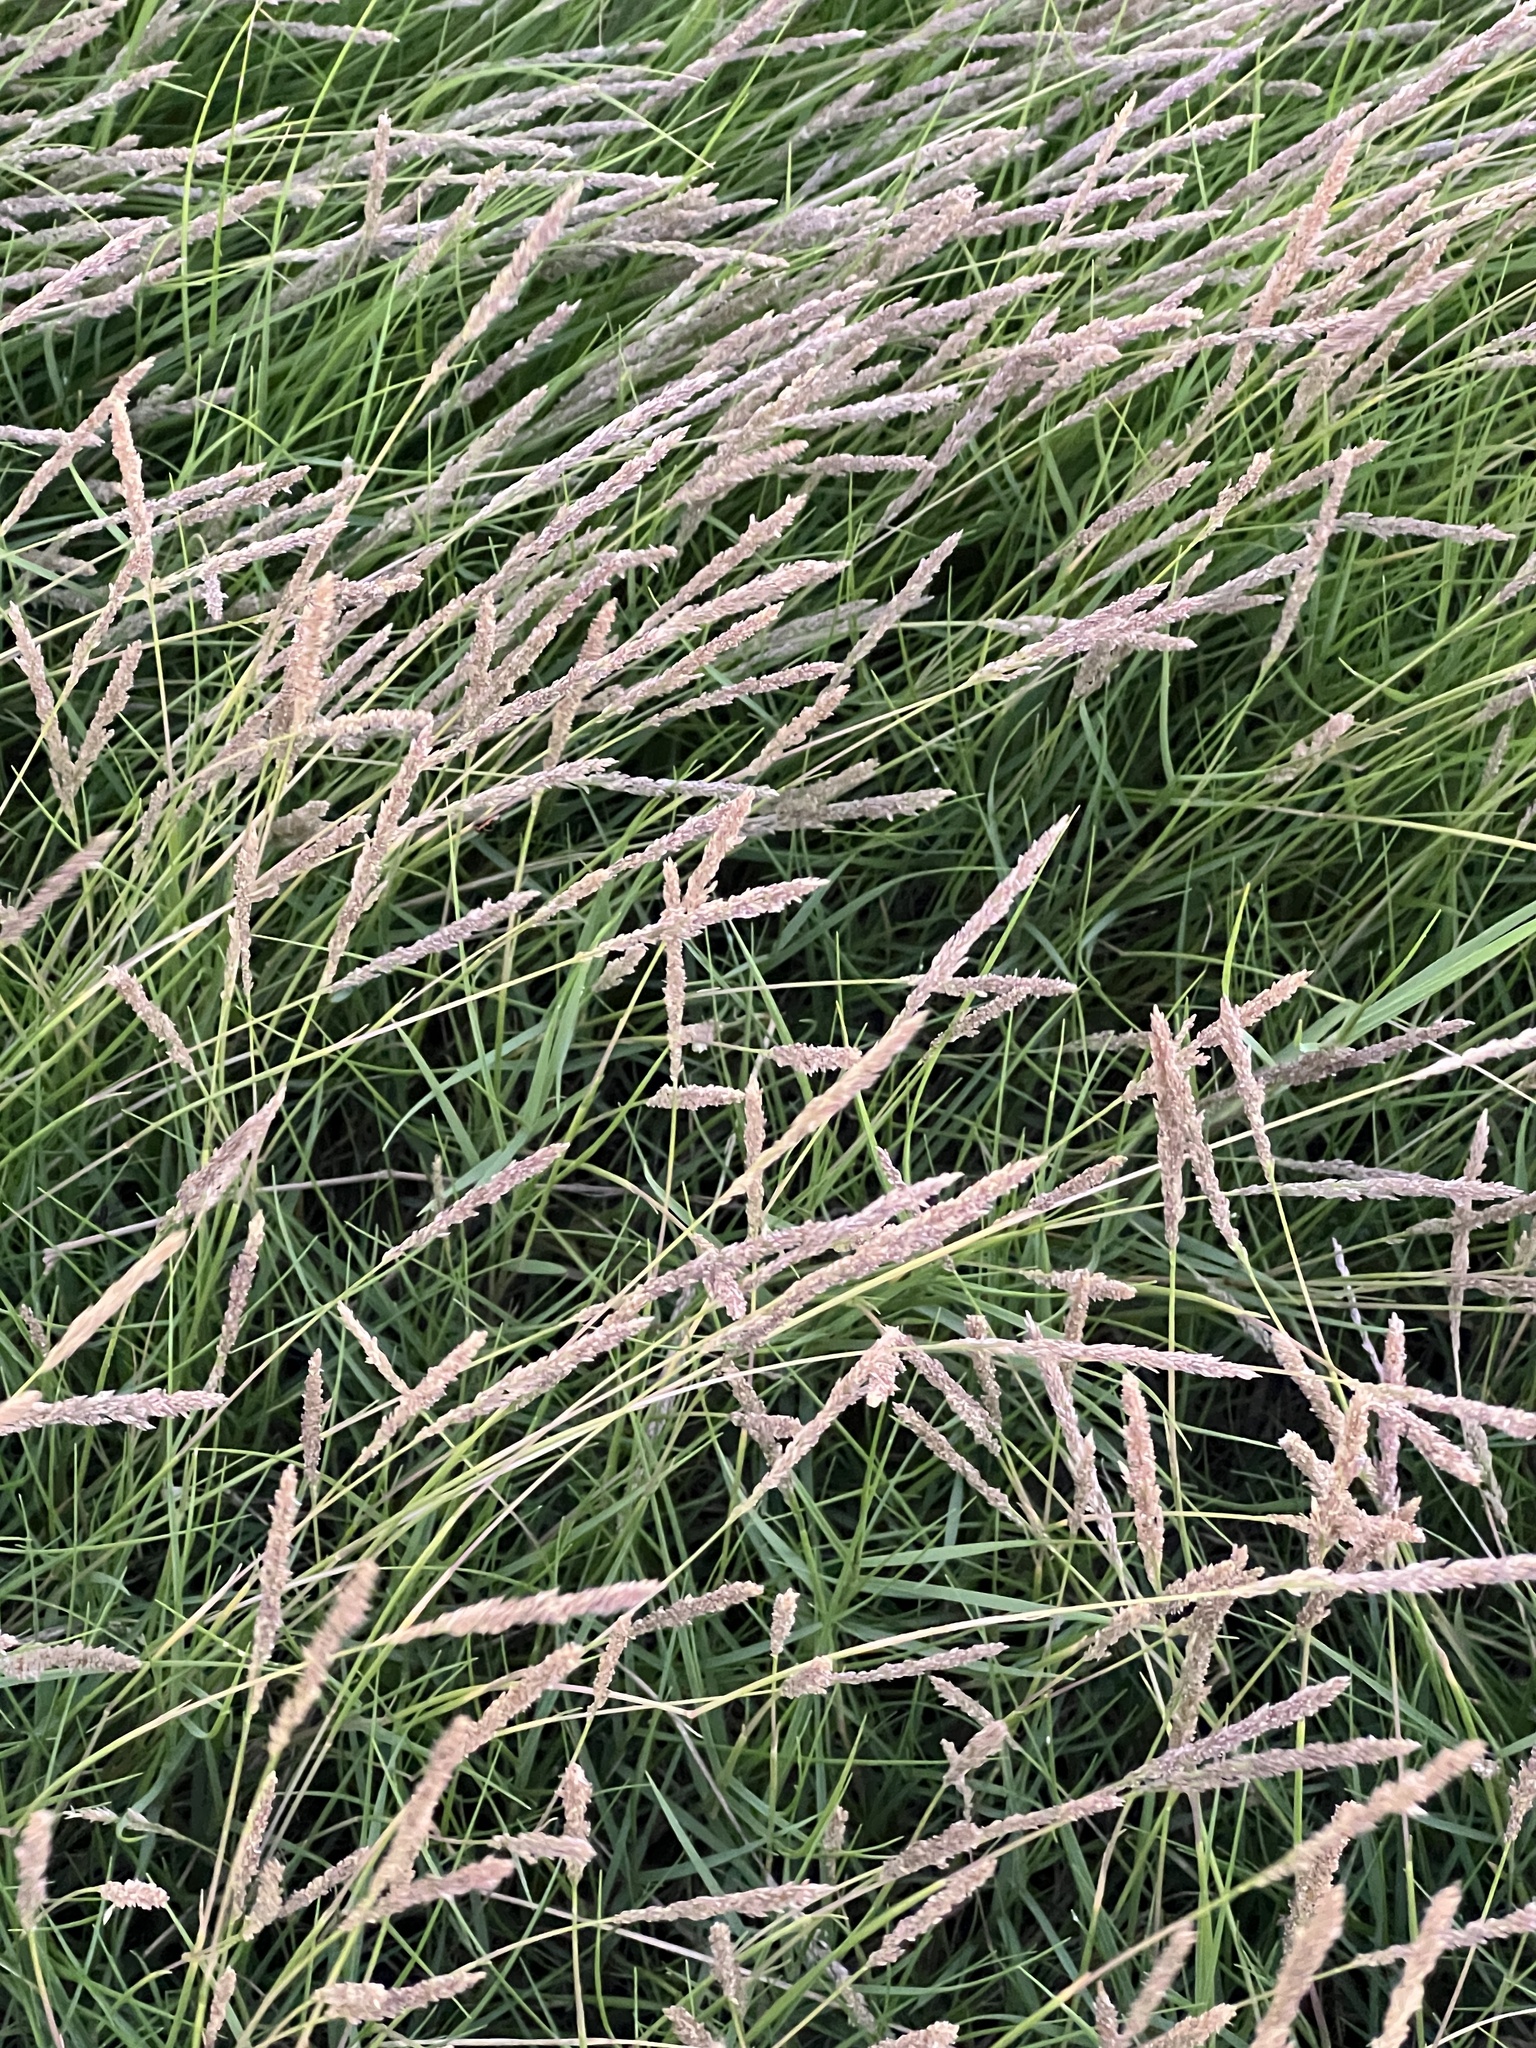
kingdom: Plantae
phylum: Tracheophyta
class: Liliopsida
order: Poales
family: Poaceae
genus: Sporobolus
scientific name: Sporobolus virginicus
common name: Beach dropseed
